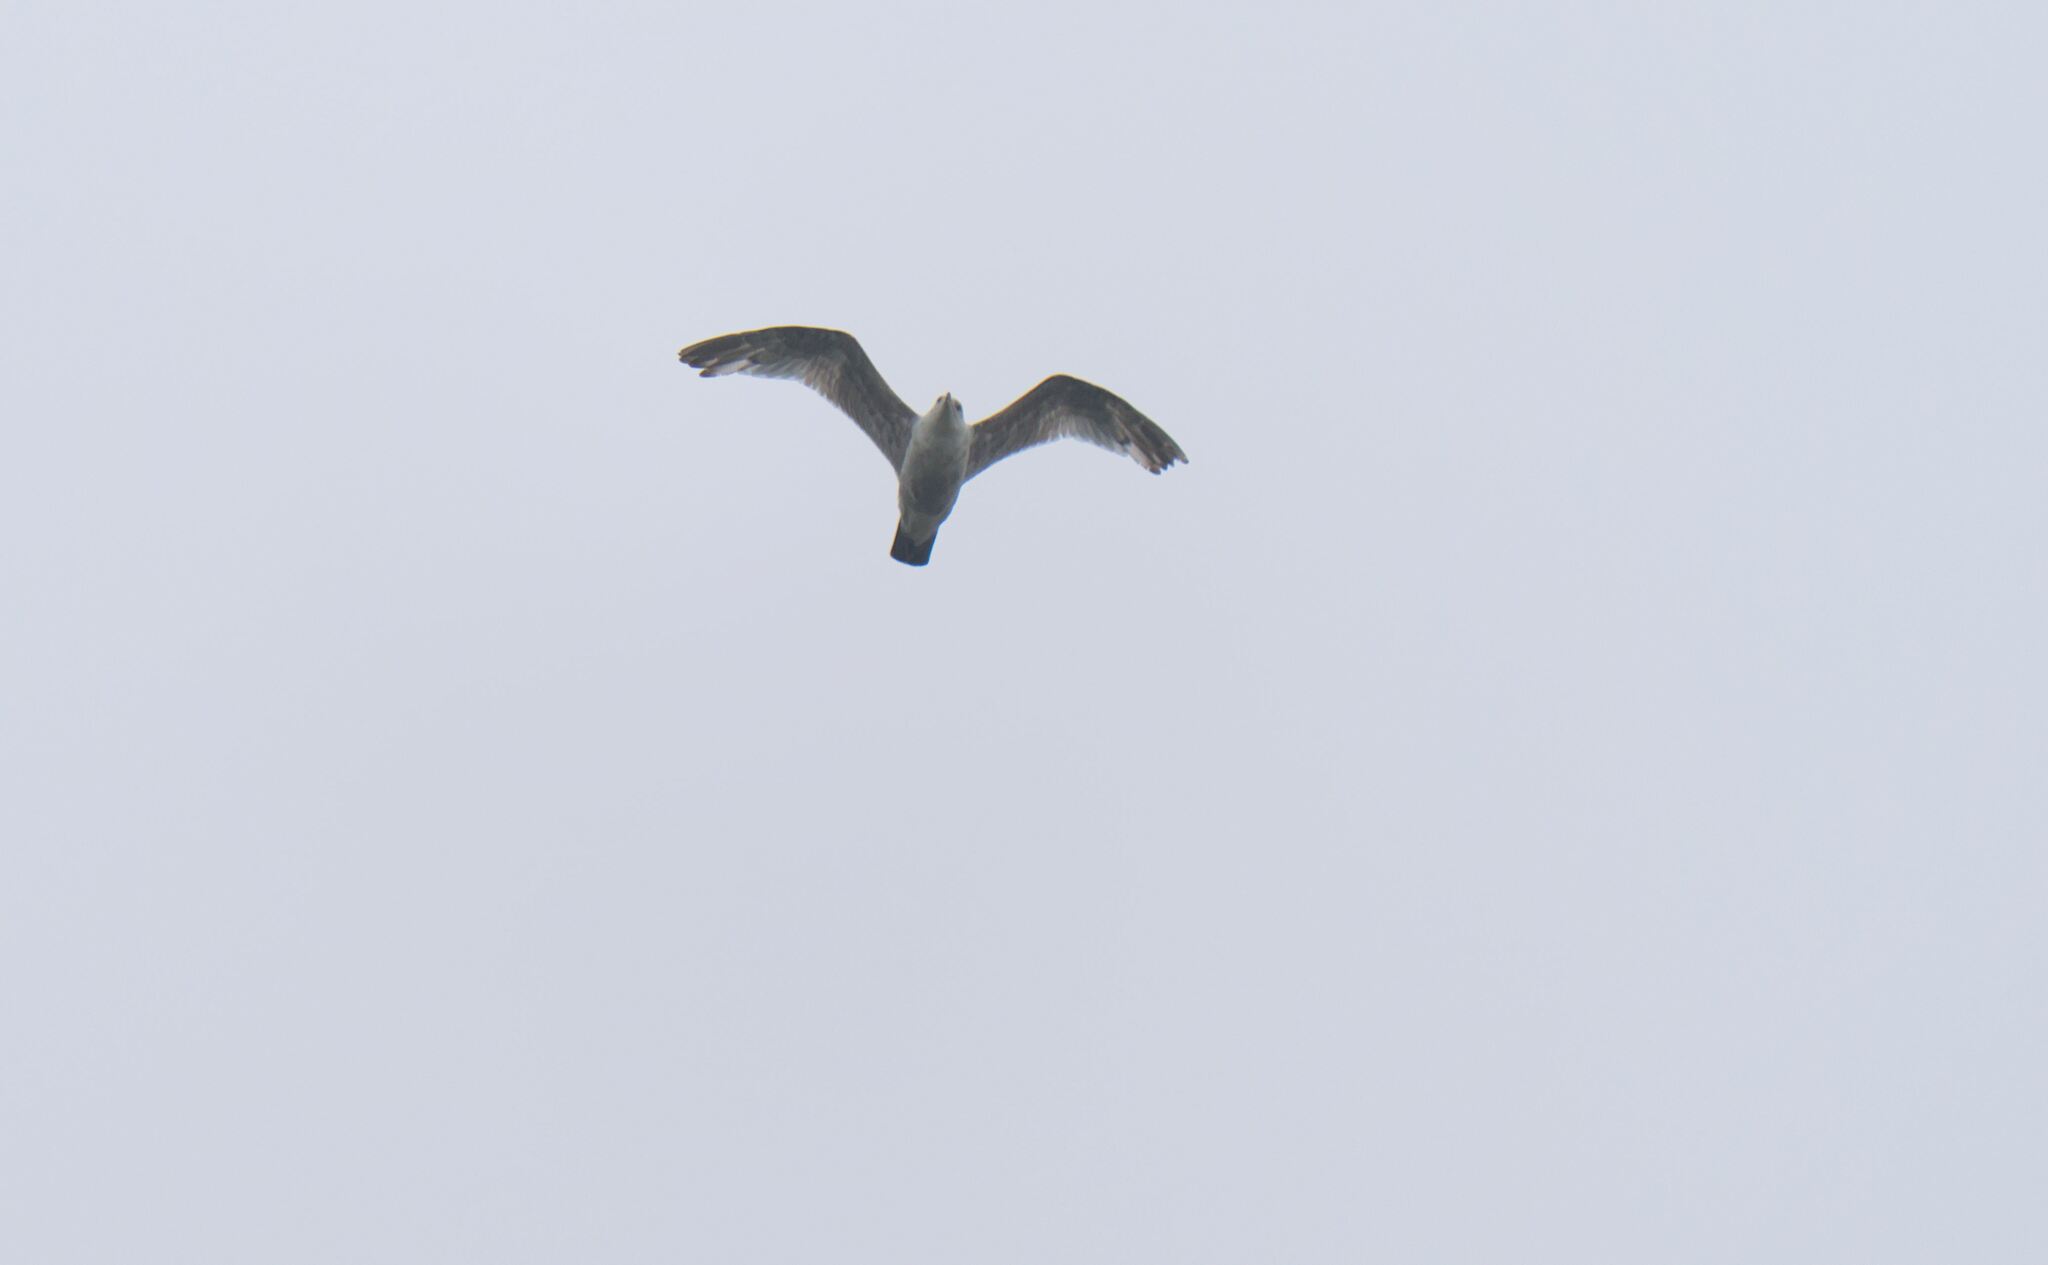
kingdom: Animalia
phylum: Chordata
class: Aves
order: Charadriiformes
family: Laridae
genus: Larus
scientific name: Larus argentatus
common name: Herring gull
